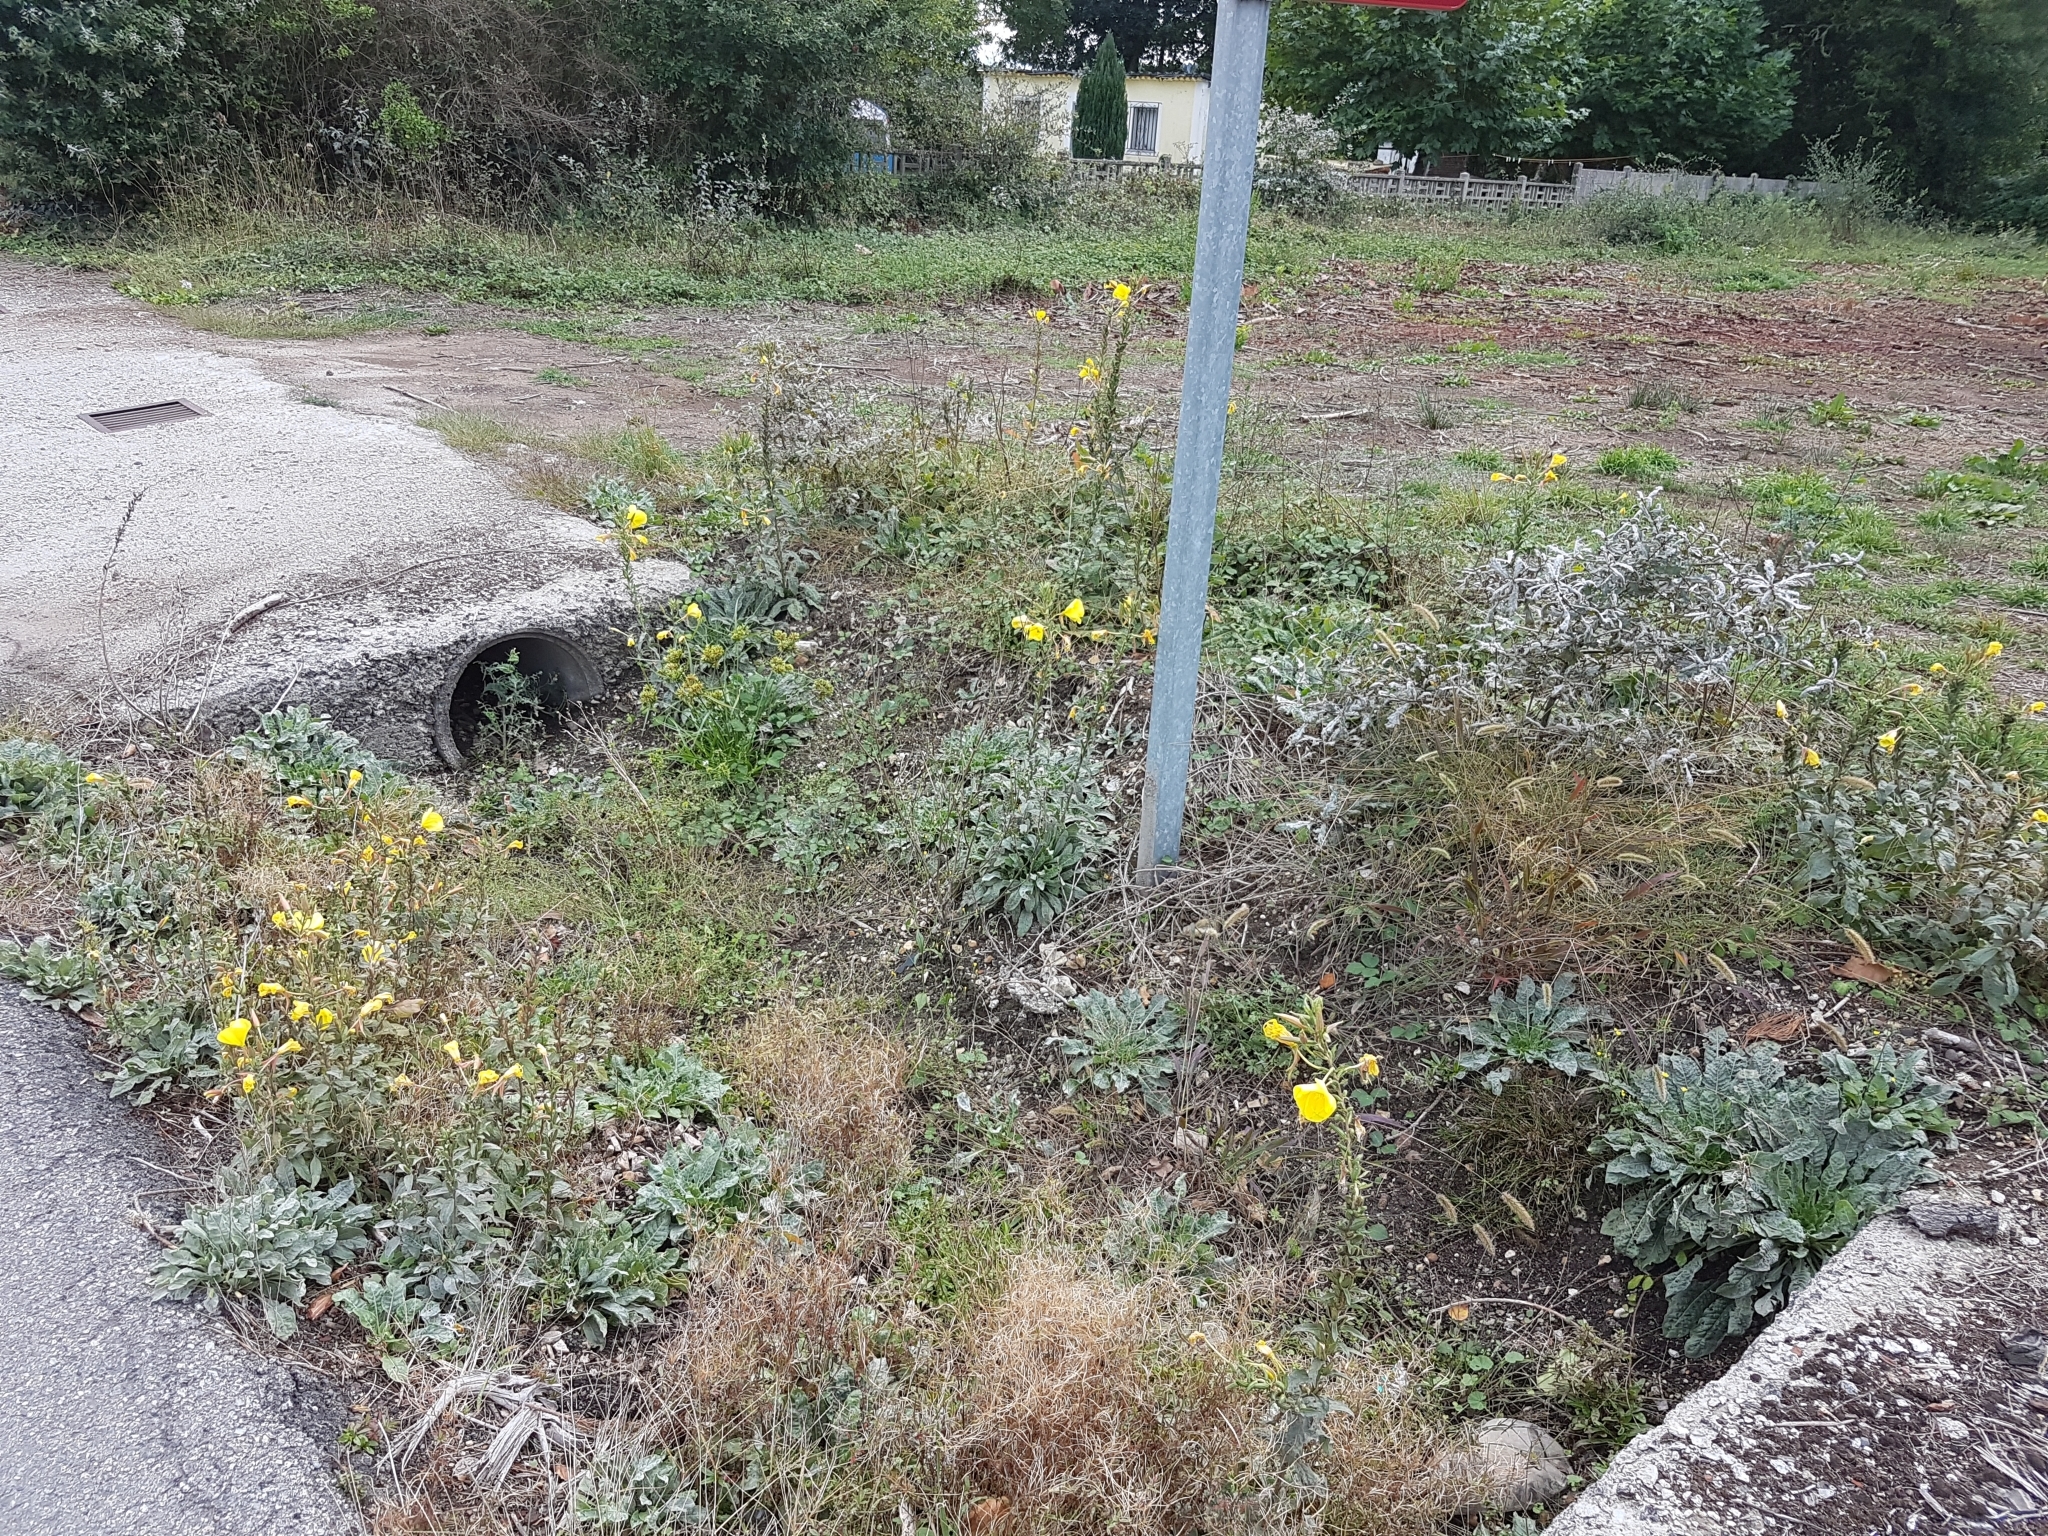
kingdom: Plantae
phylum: Tracheophyta
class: Magnoliopsida
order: Myrtales
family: Onagraceae
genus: Oenothera
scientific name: Oenothera glazioviana
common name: Large-flowered evening-primrose
